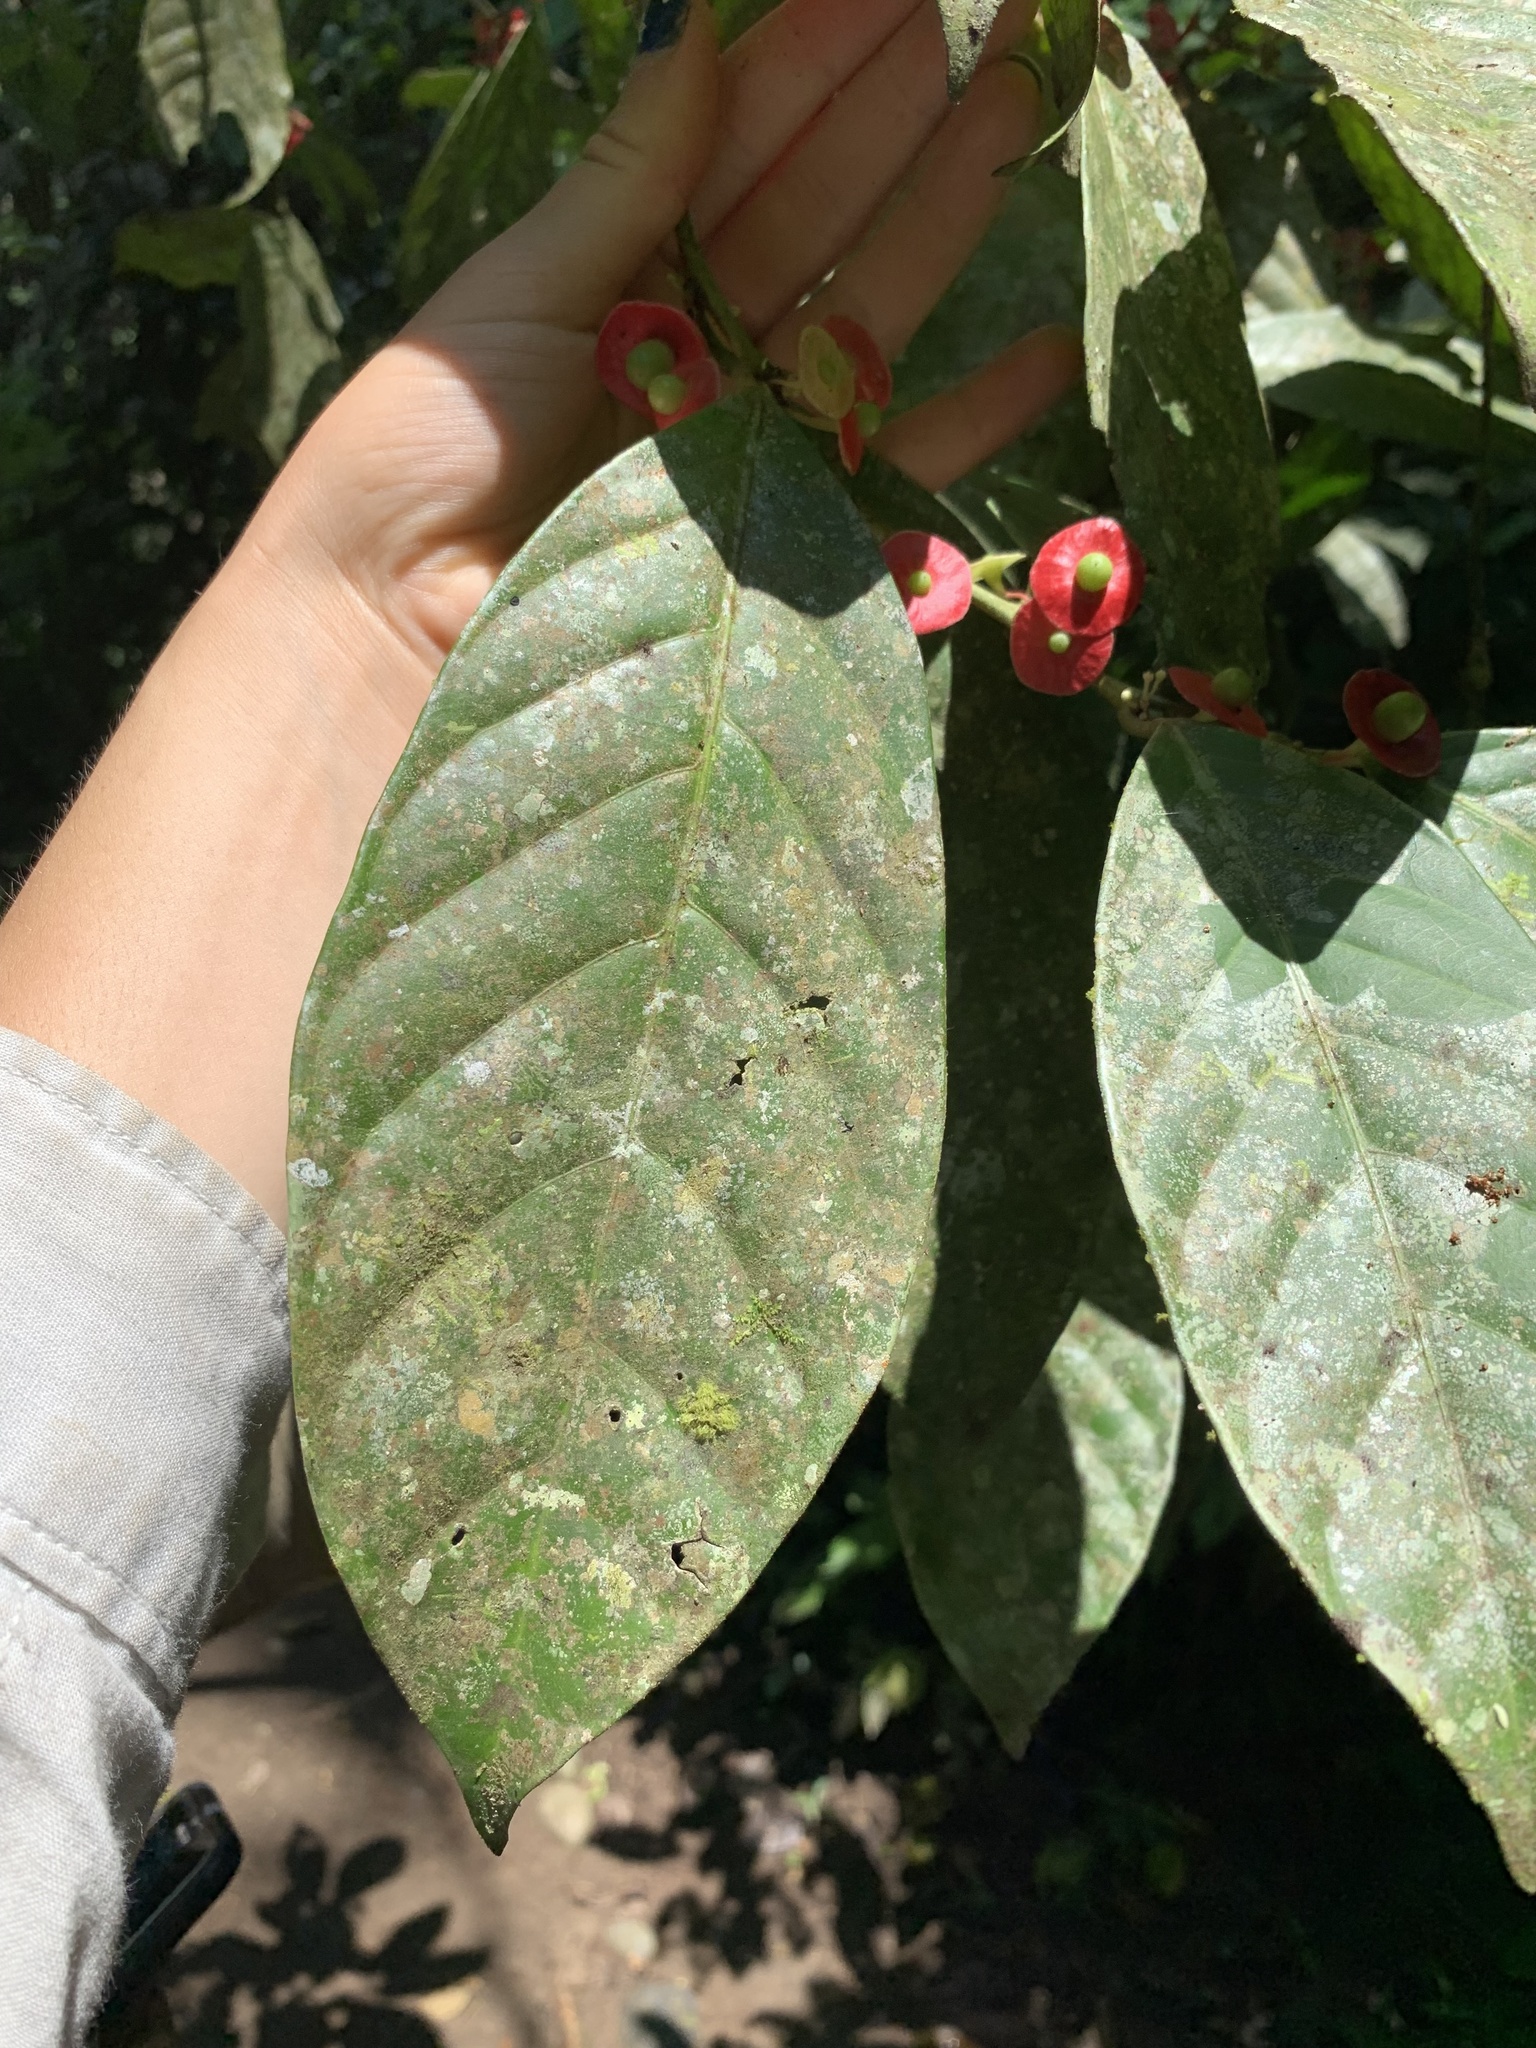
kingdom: Plantae
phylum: Tracheophyta
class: Magnoliopsida
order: Santalales
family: Erythropalaceae
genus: Heisteria
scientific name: Heisteria acuminata
